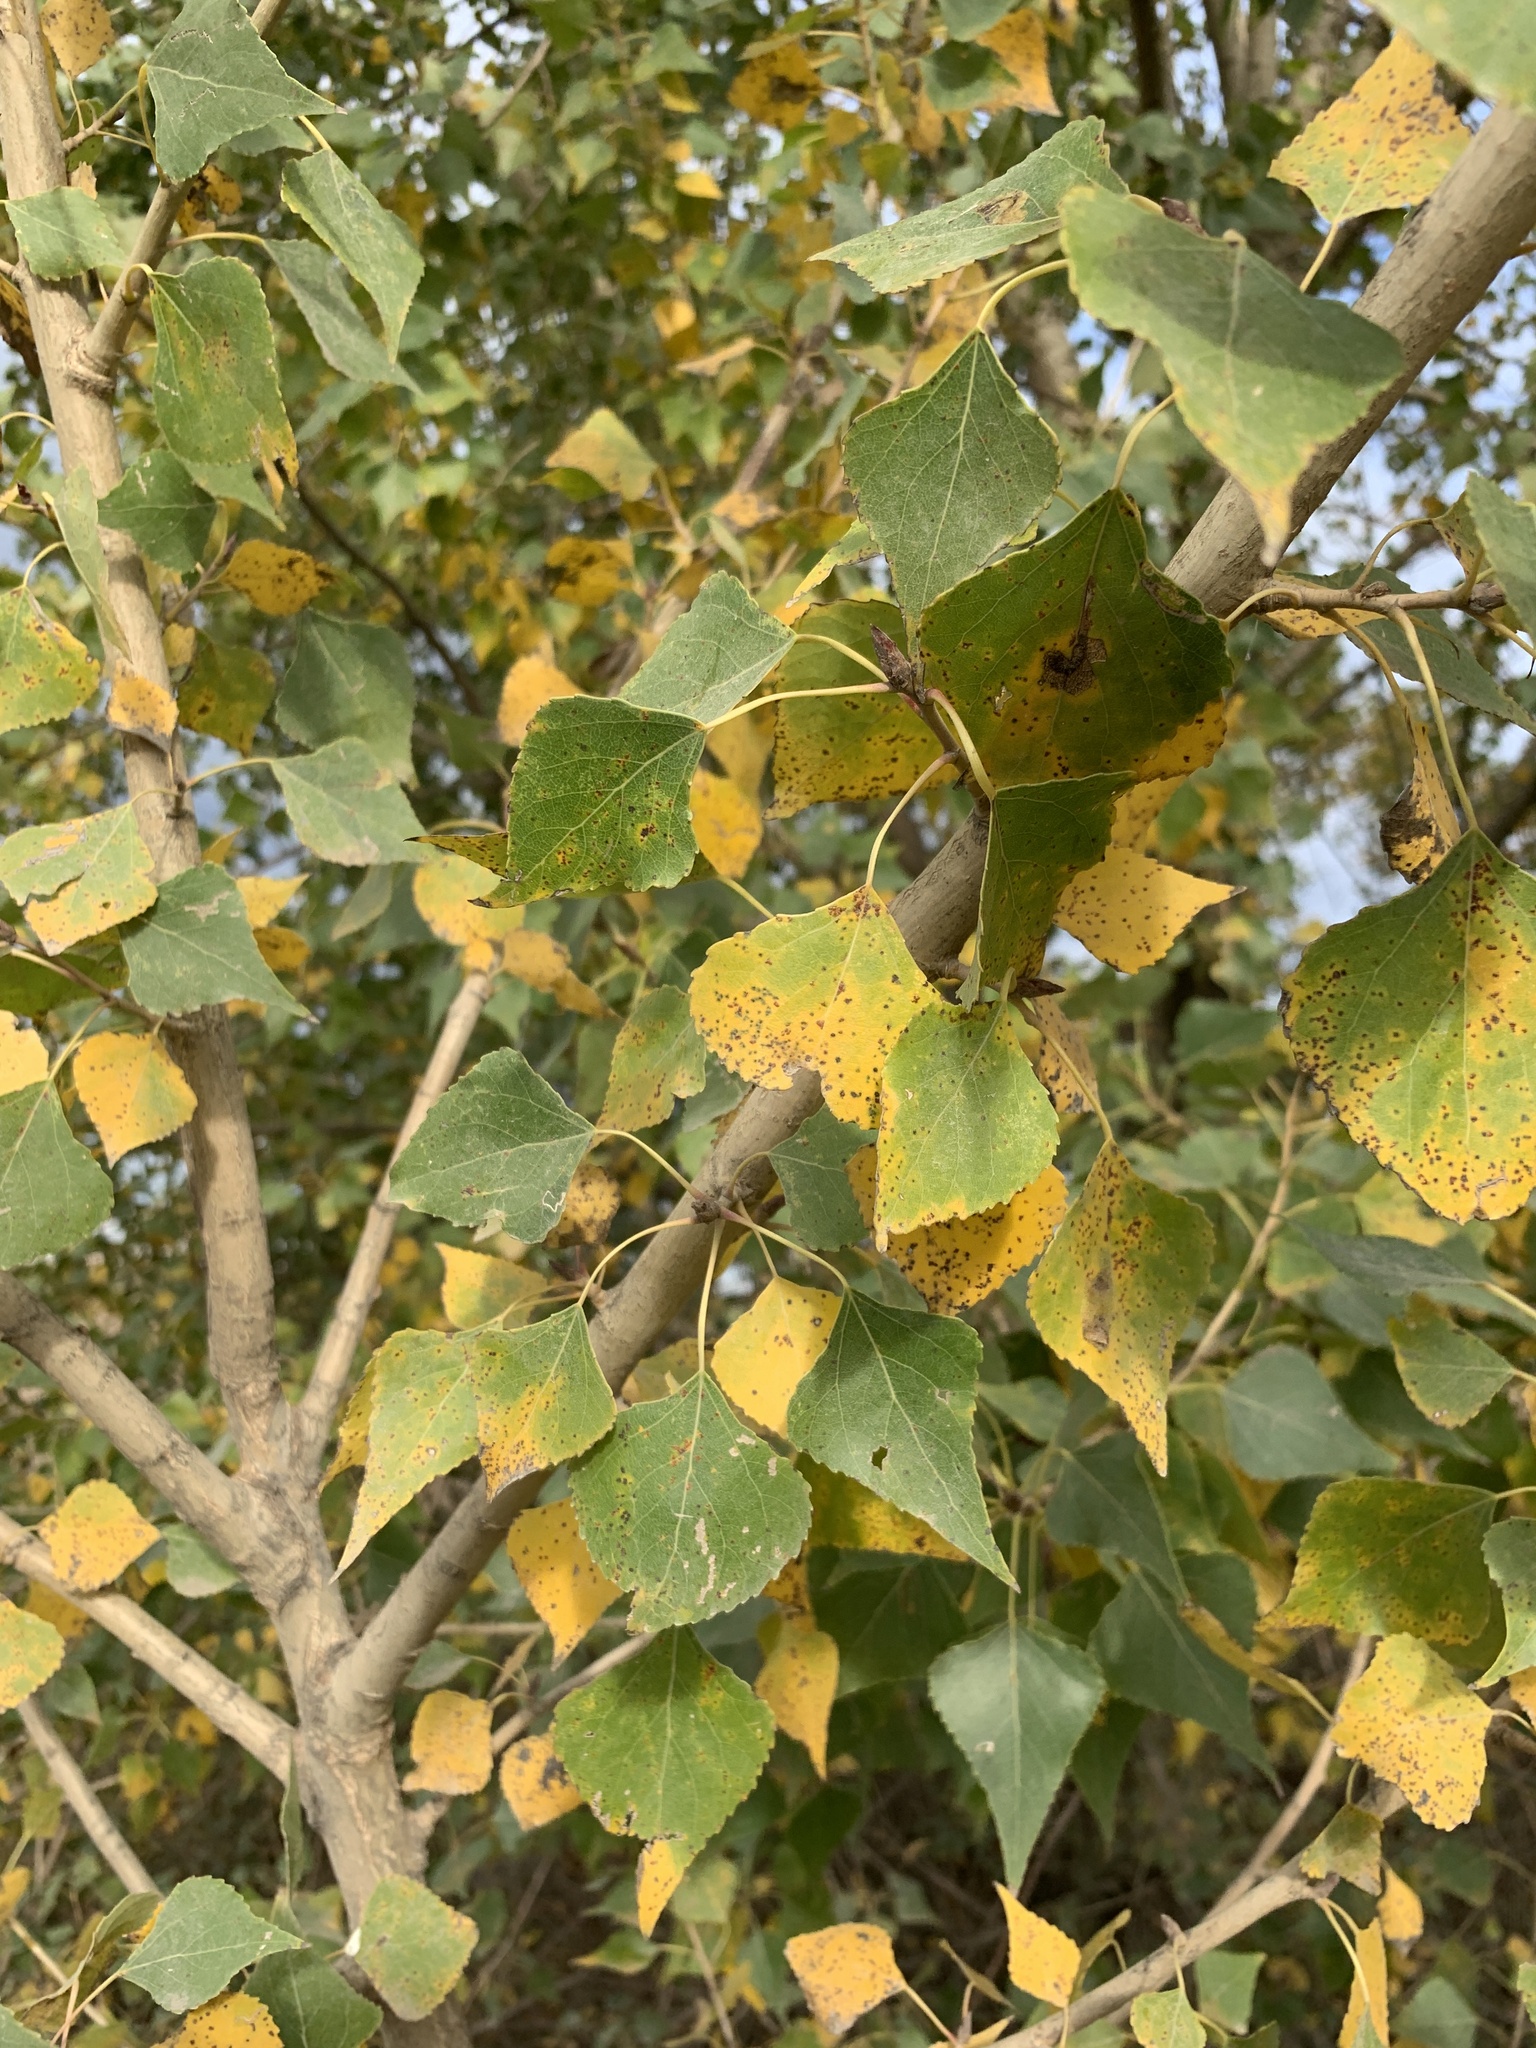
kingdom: Plantae
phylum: Tracheophyta
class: Magnoliopsida
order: Malpighiales
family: Salicaceae
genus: Populus
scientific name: Populus nigra
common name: Black poplar
